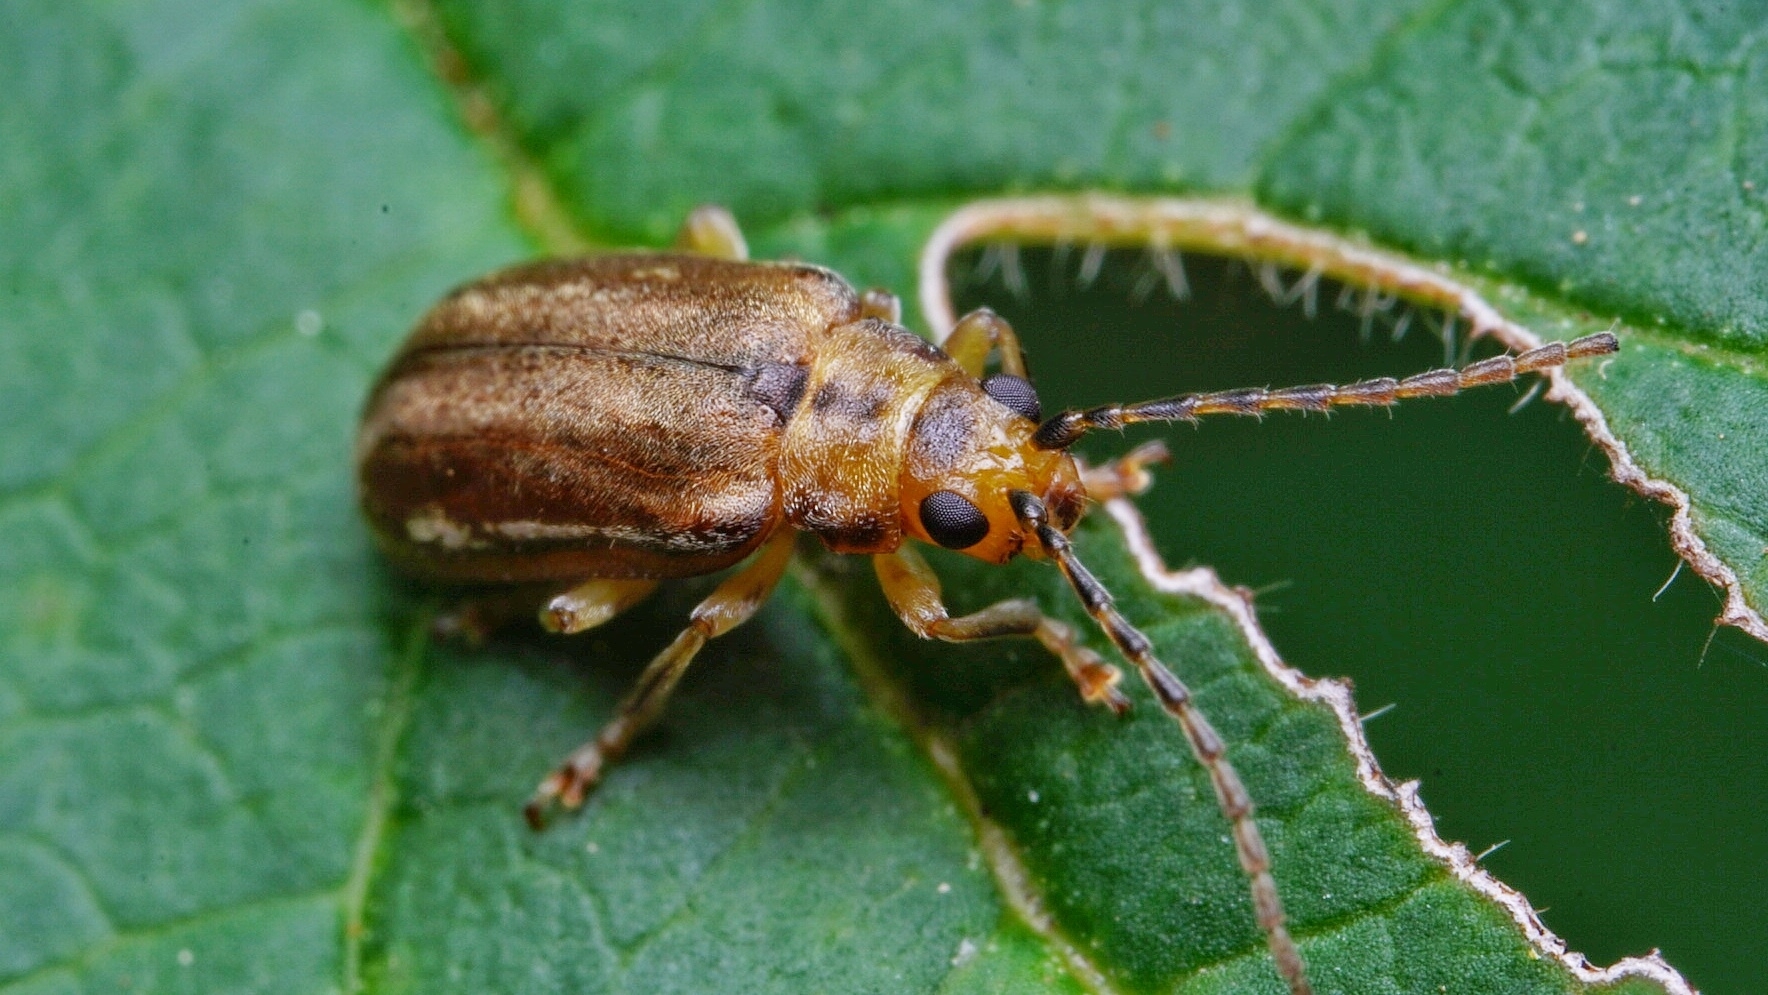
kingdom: Animalia
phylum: Arthropoda
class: Insecta
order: Coleoptera
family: Chrysomelidae
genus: Pyrrhalta
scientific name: Pyrrhalta viburni
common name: Guelder-rose leaf beetle
